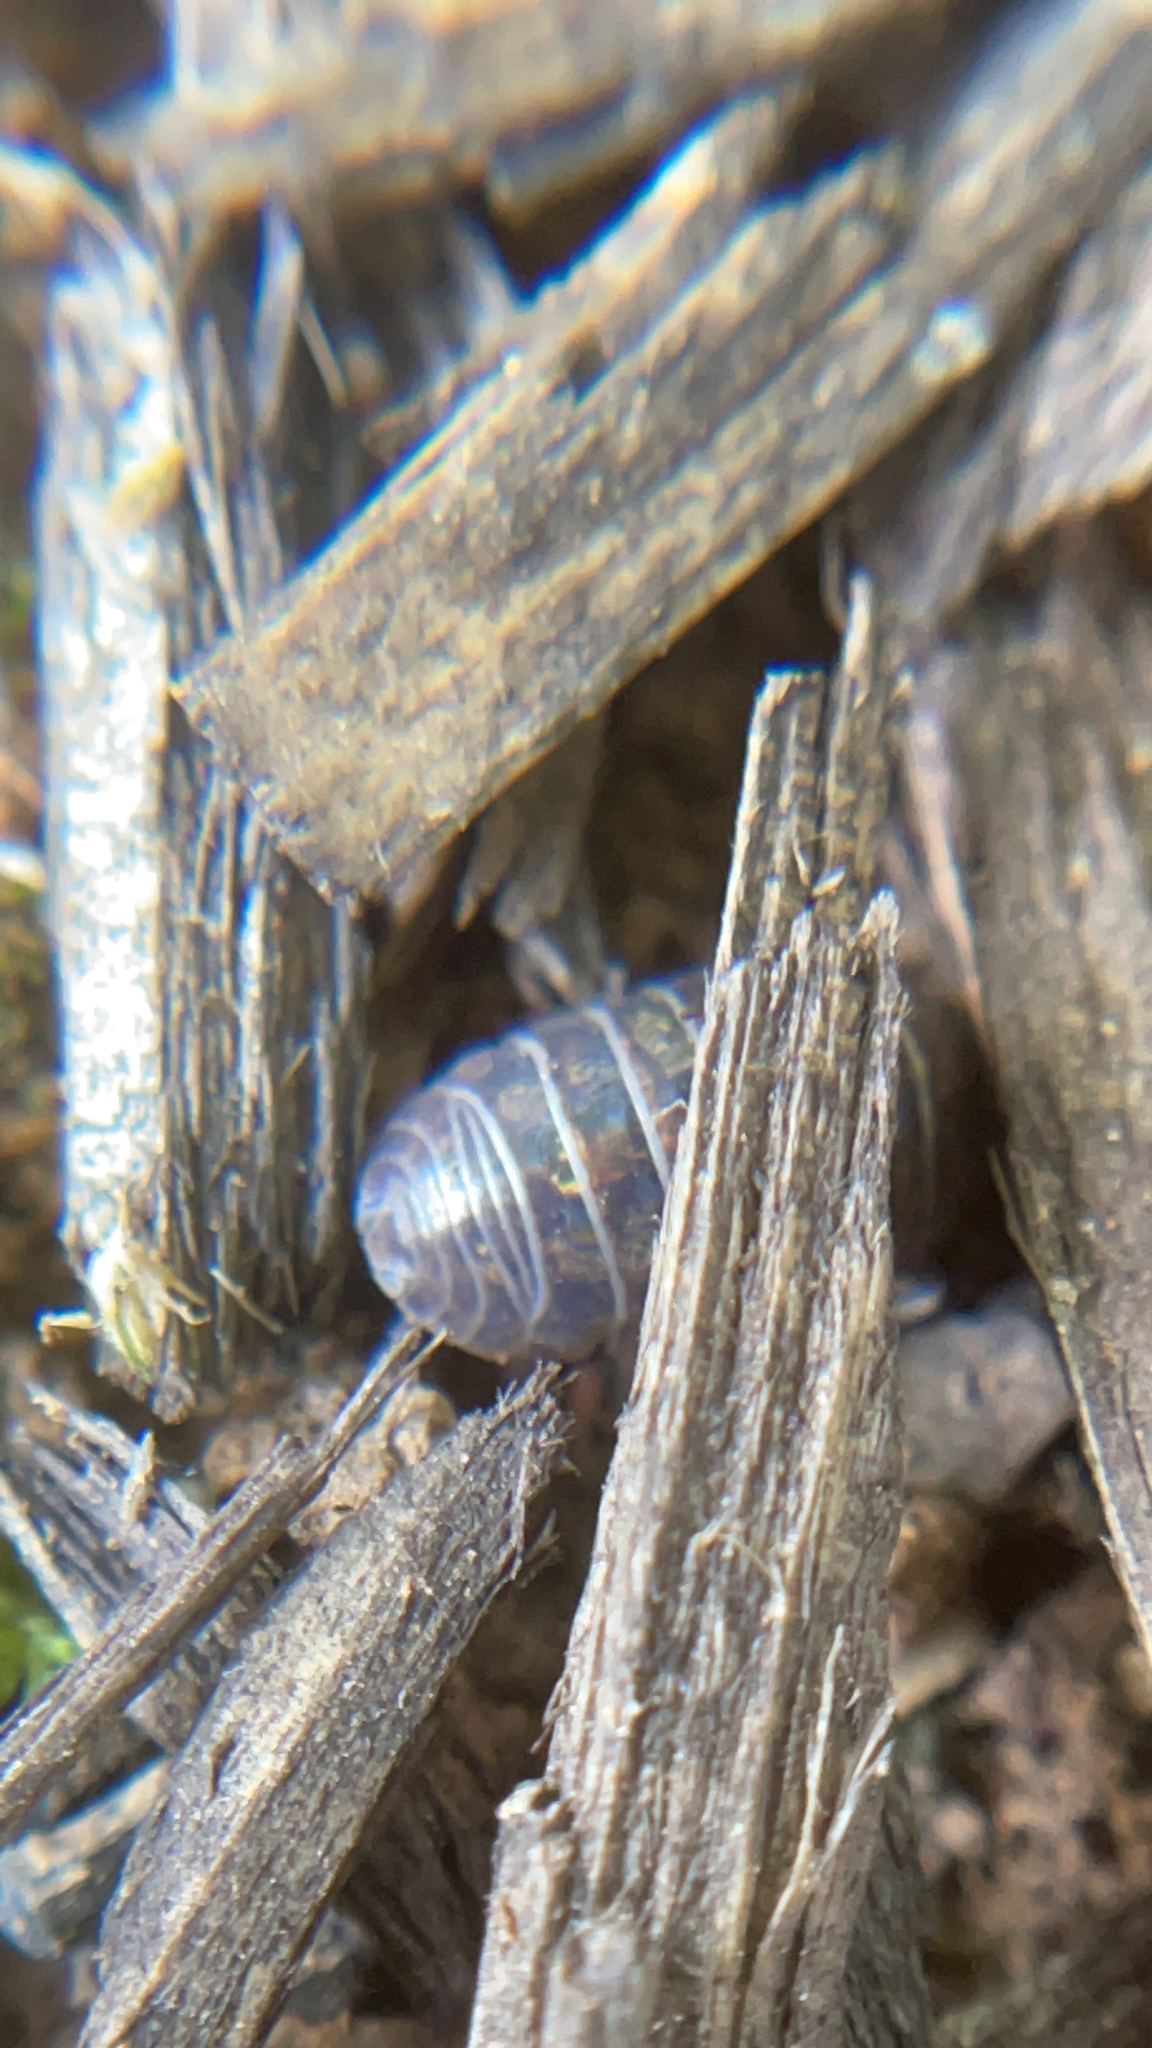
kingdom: Animalia
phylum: Arthropoda
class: Malacostraca
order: Isopoda
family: Armadillidiidae
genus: Armadillidium
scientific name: Armadillidium vulgare
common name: Common pill woodlouse
